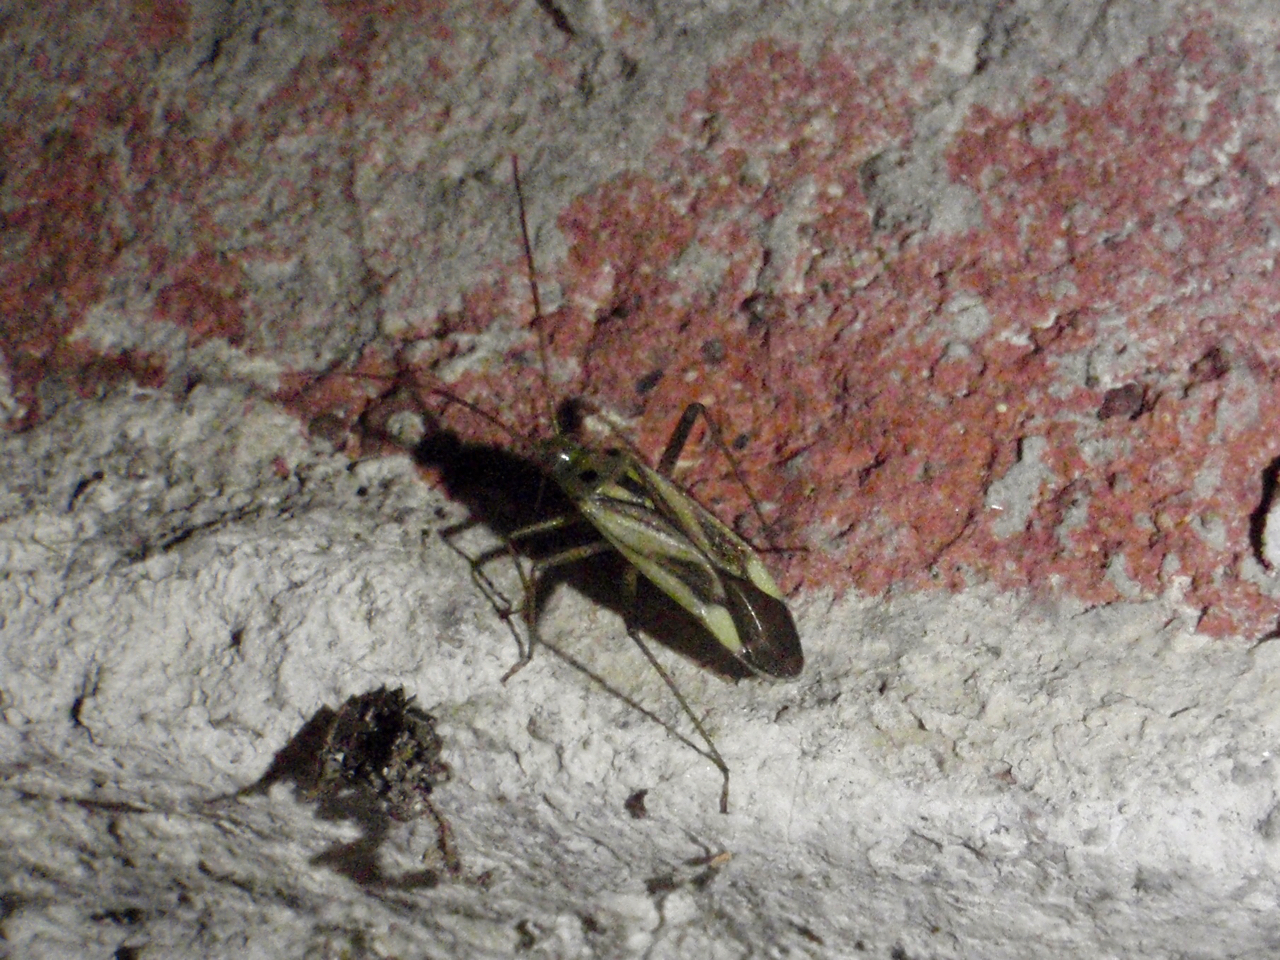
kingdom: Animalia
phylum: Arthropoda
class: Insecta
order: Hemiptera
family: Miridae
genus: Adelphocoris
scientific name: Adelphocoris lineolatus
